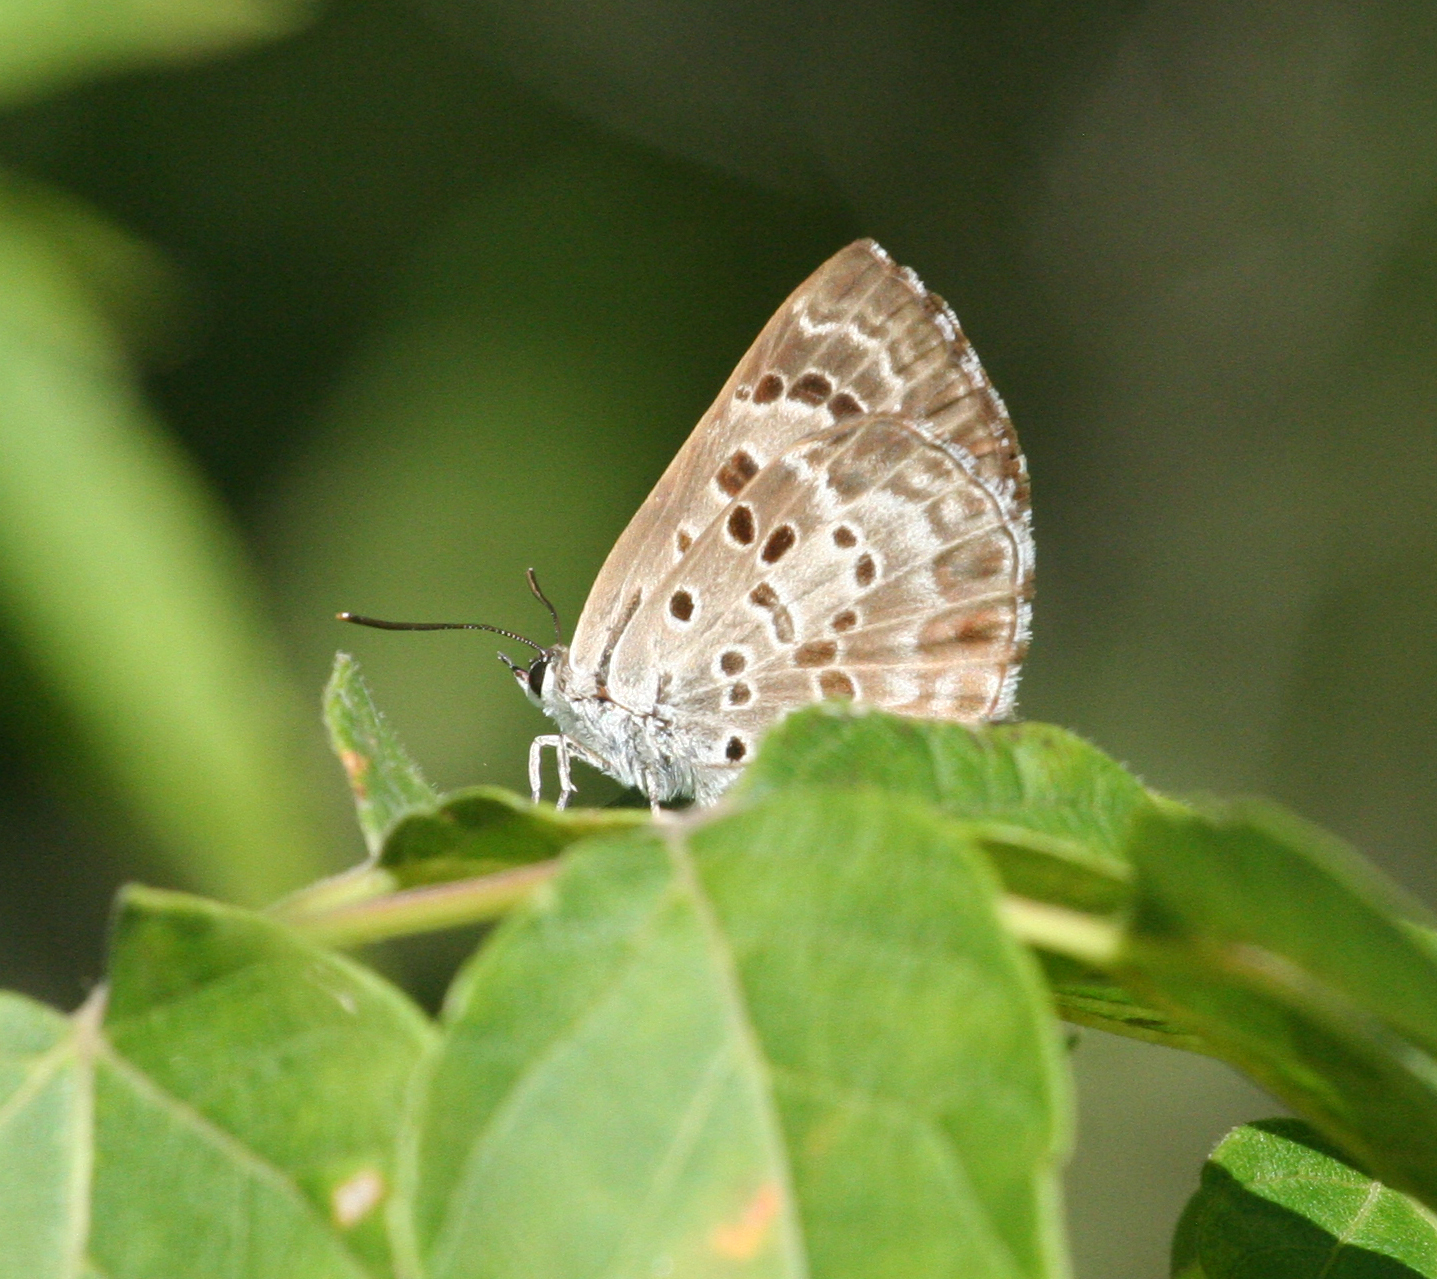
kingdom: Animalia
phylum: Arthropoda
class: Insecta
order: Lepidoptera
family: Lycaenidae
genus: Niphanda
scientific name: Niphanda fusca
